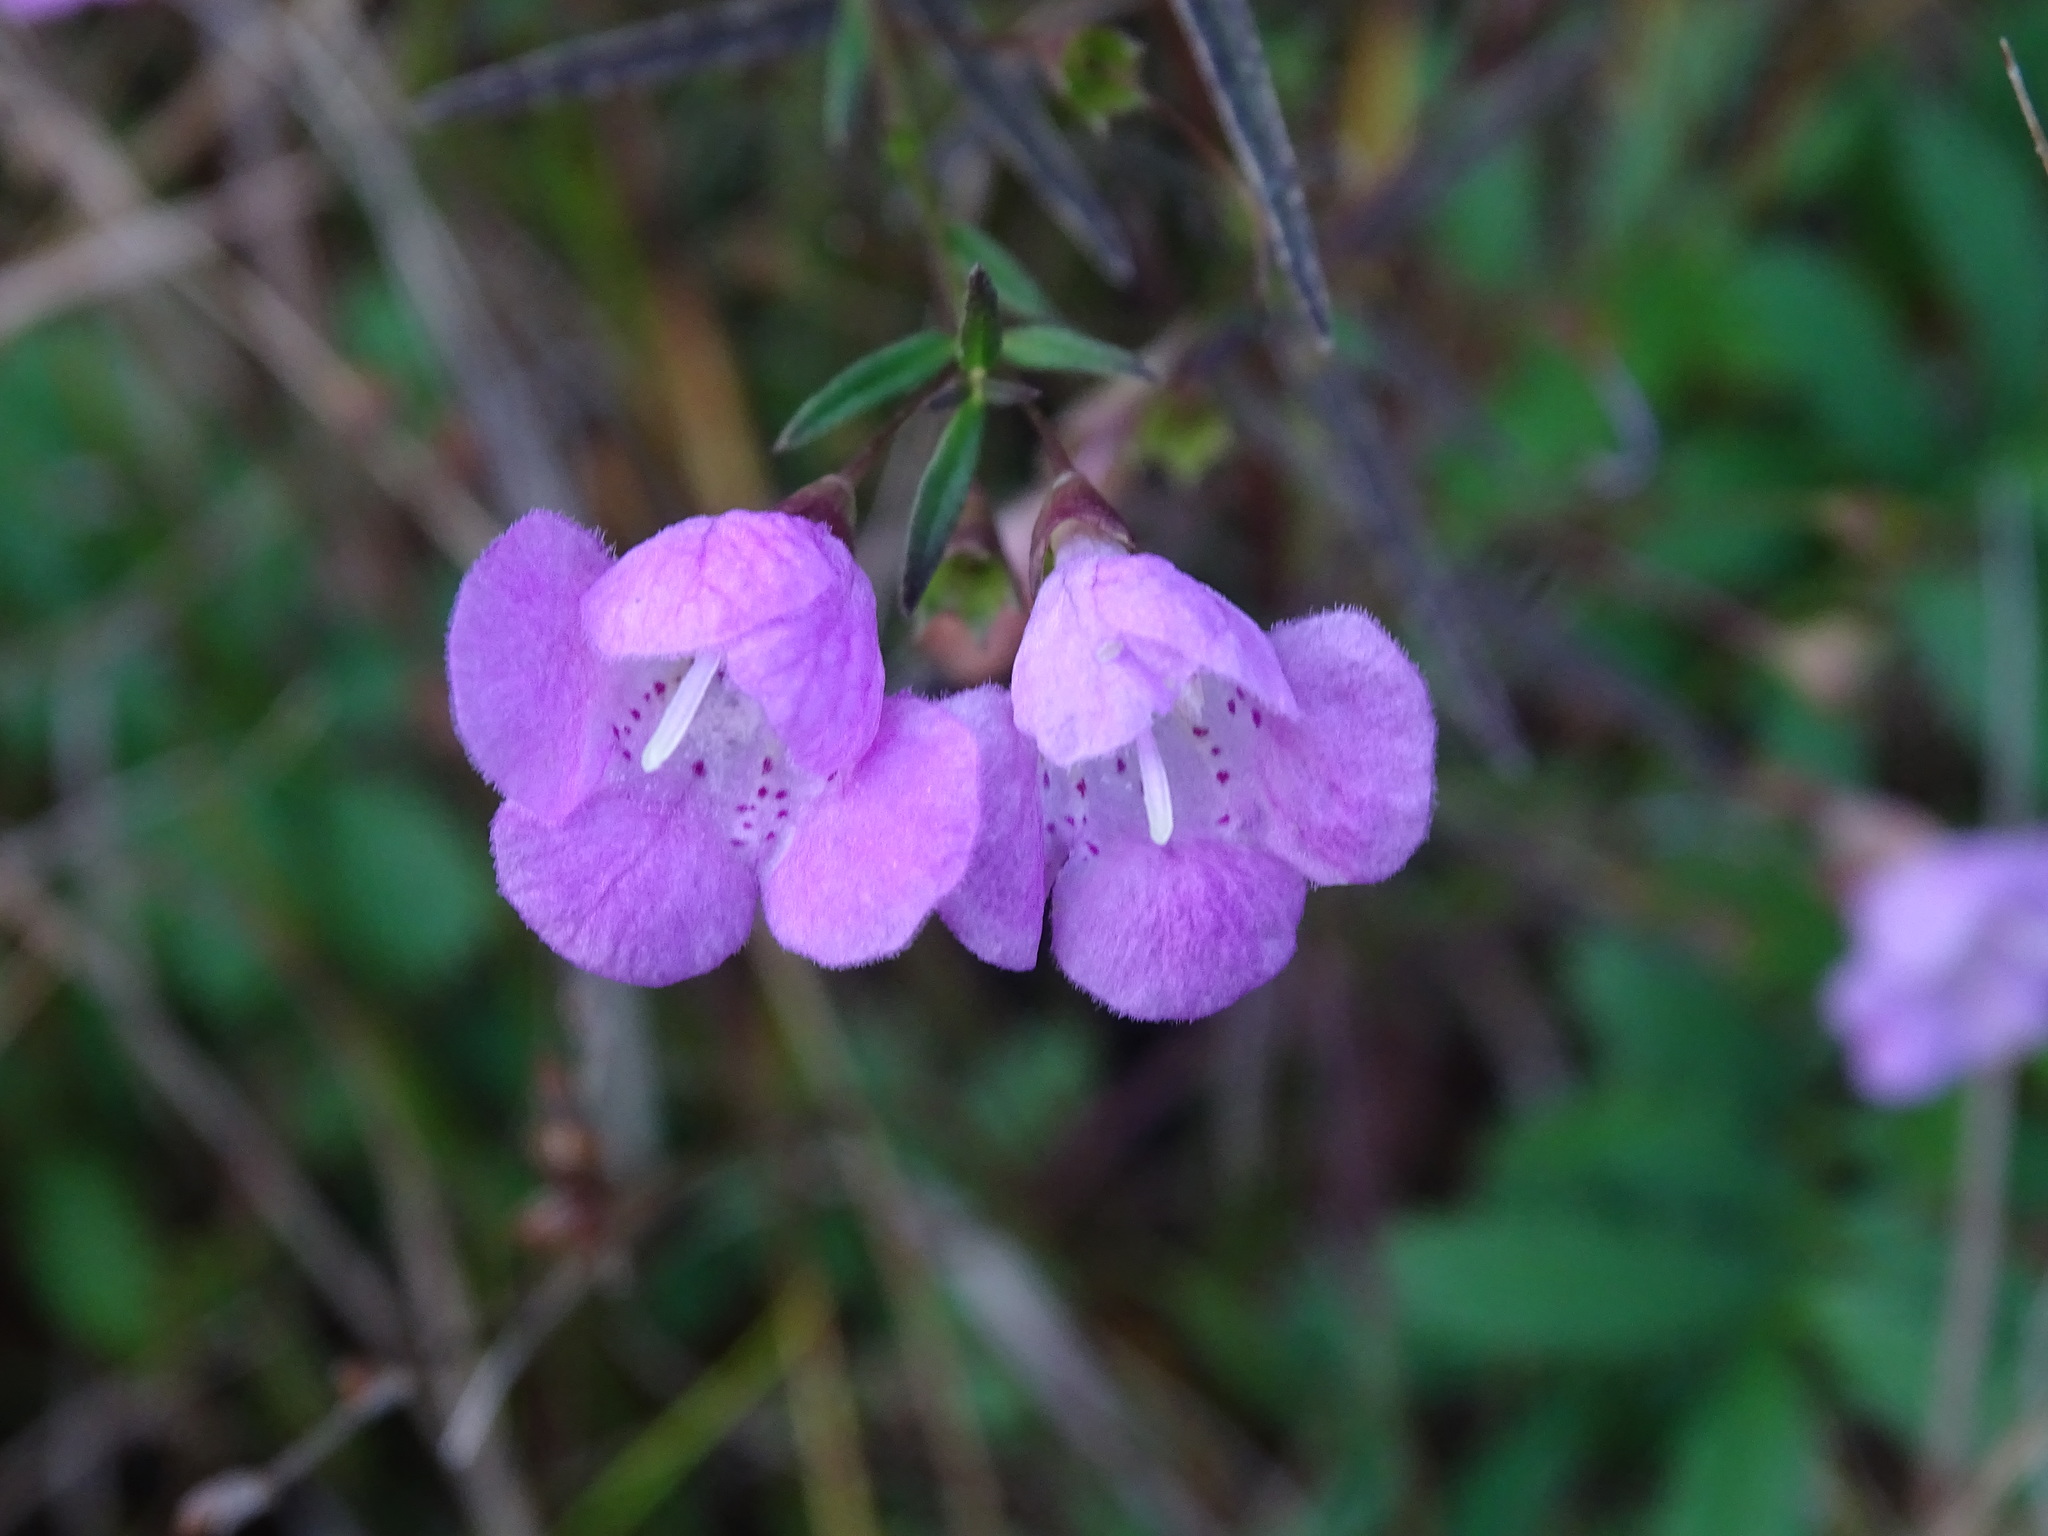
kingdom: Plantae
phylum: Tracheophyta
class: Magnoliopsida
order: Lamiales
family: Orobanchaceae
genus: Agalinis
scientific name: Agalinis tenuifolia
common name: Slender agalinis
